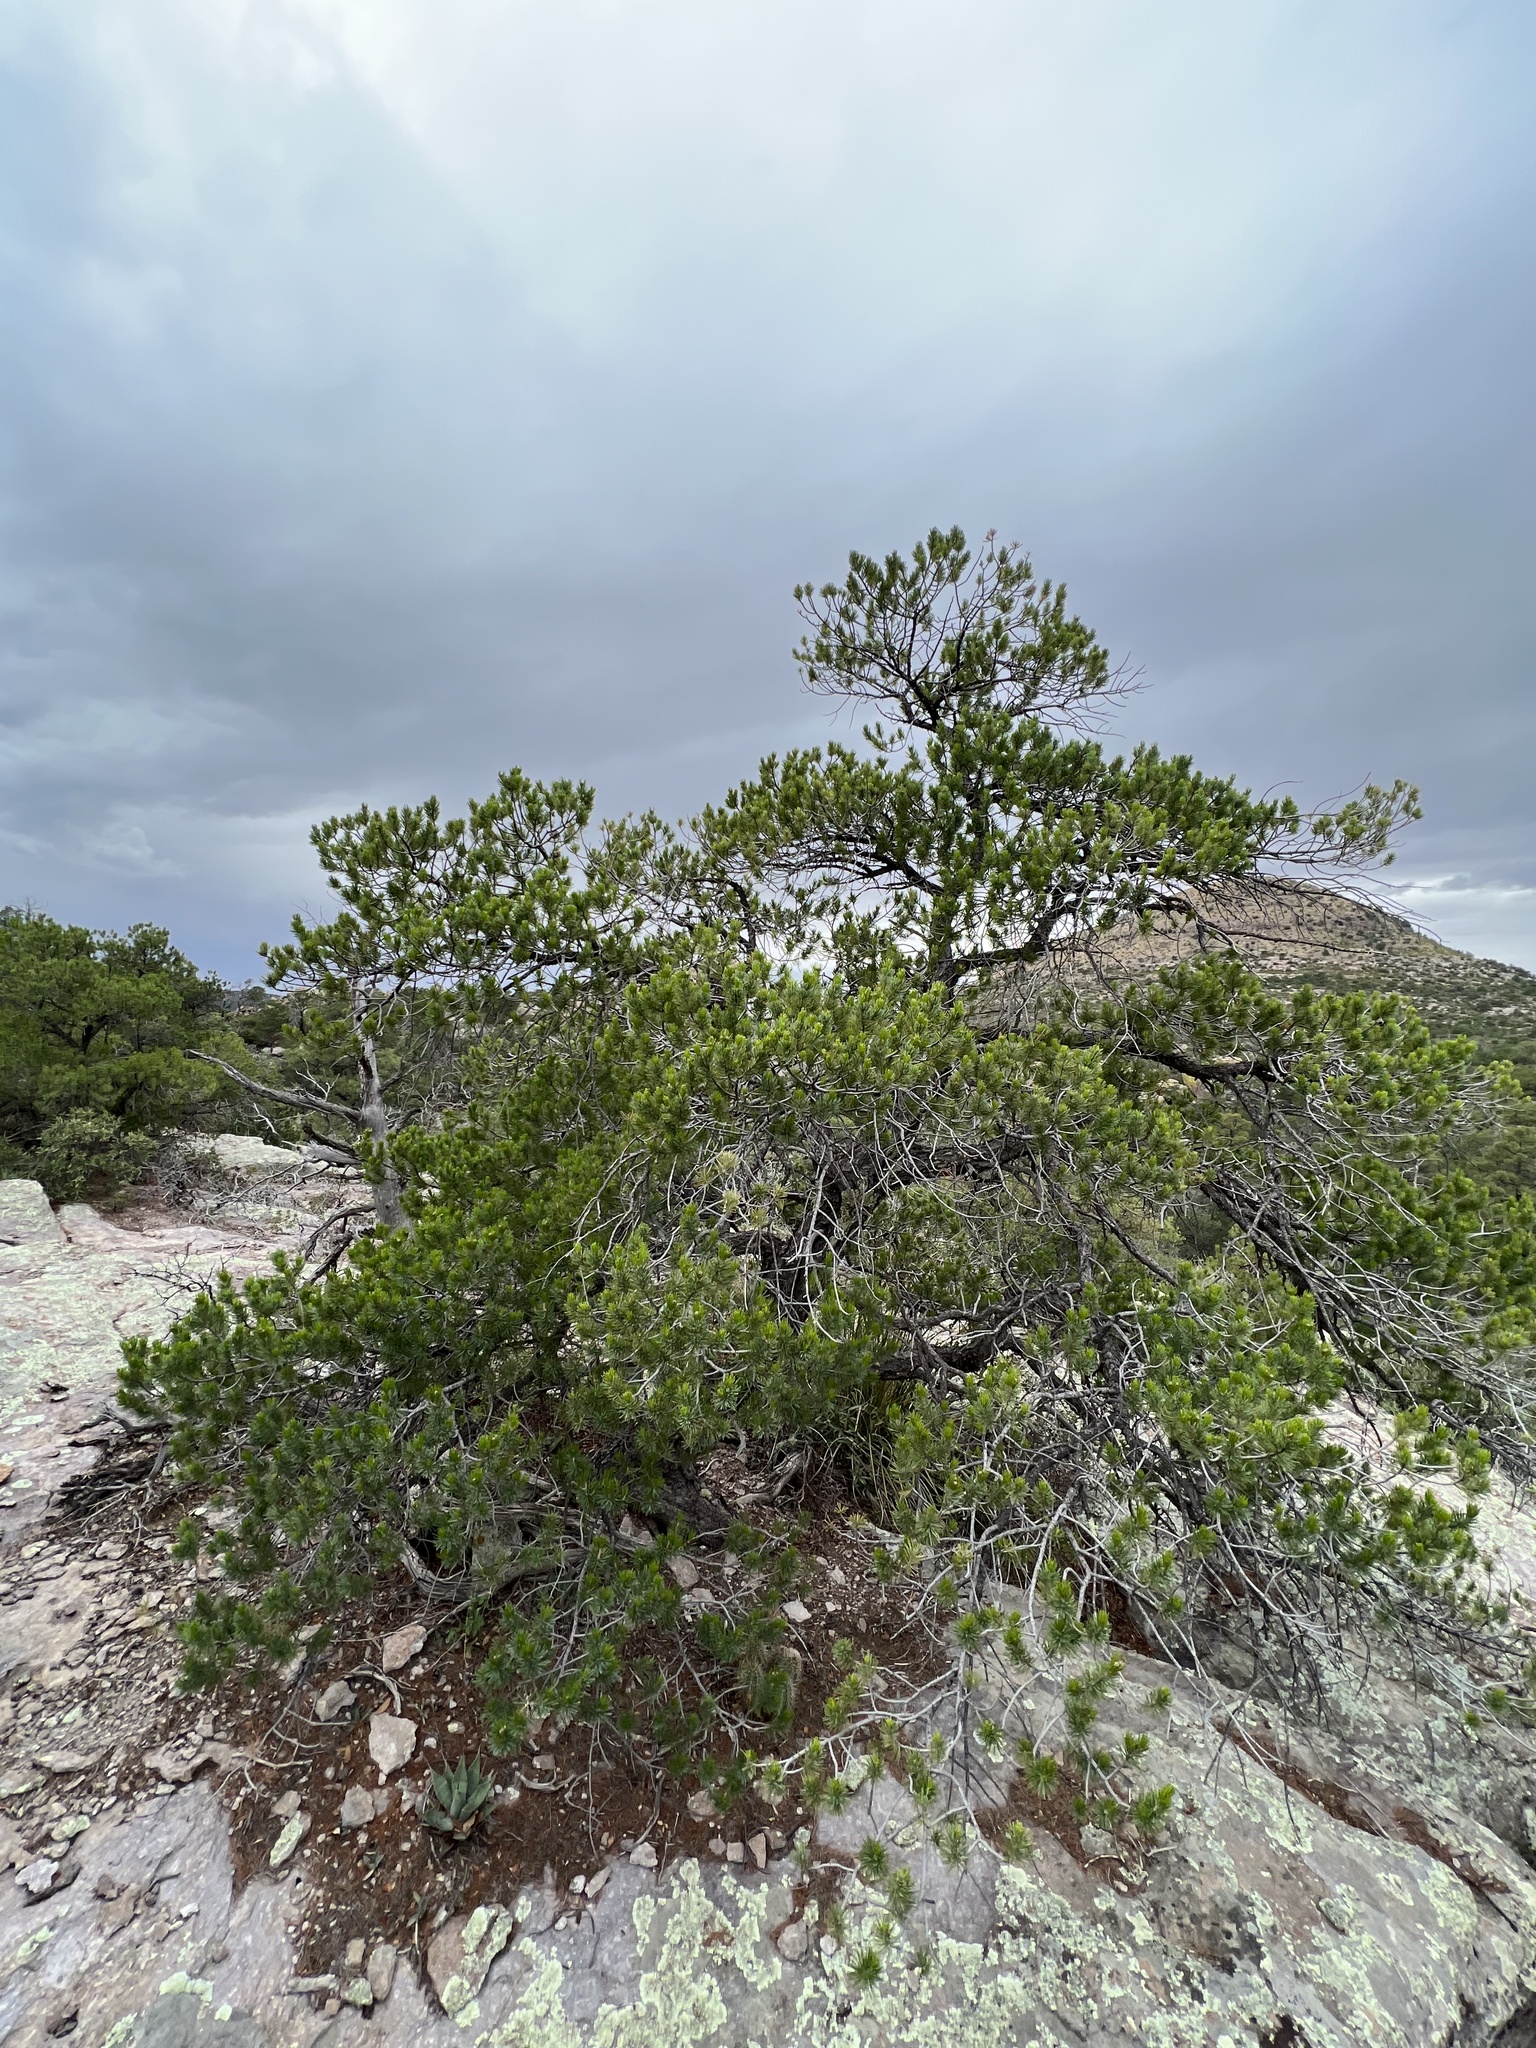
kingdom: Plantae
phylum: Tracheophyta
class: Pinopsida
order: Pinales
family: Pinaceae
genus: Pinus
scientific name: Pinus cembroides
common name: Mexican nut pine
